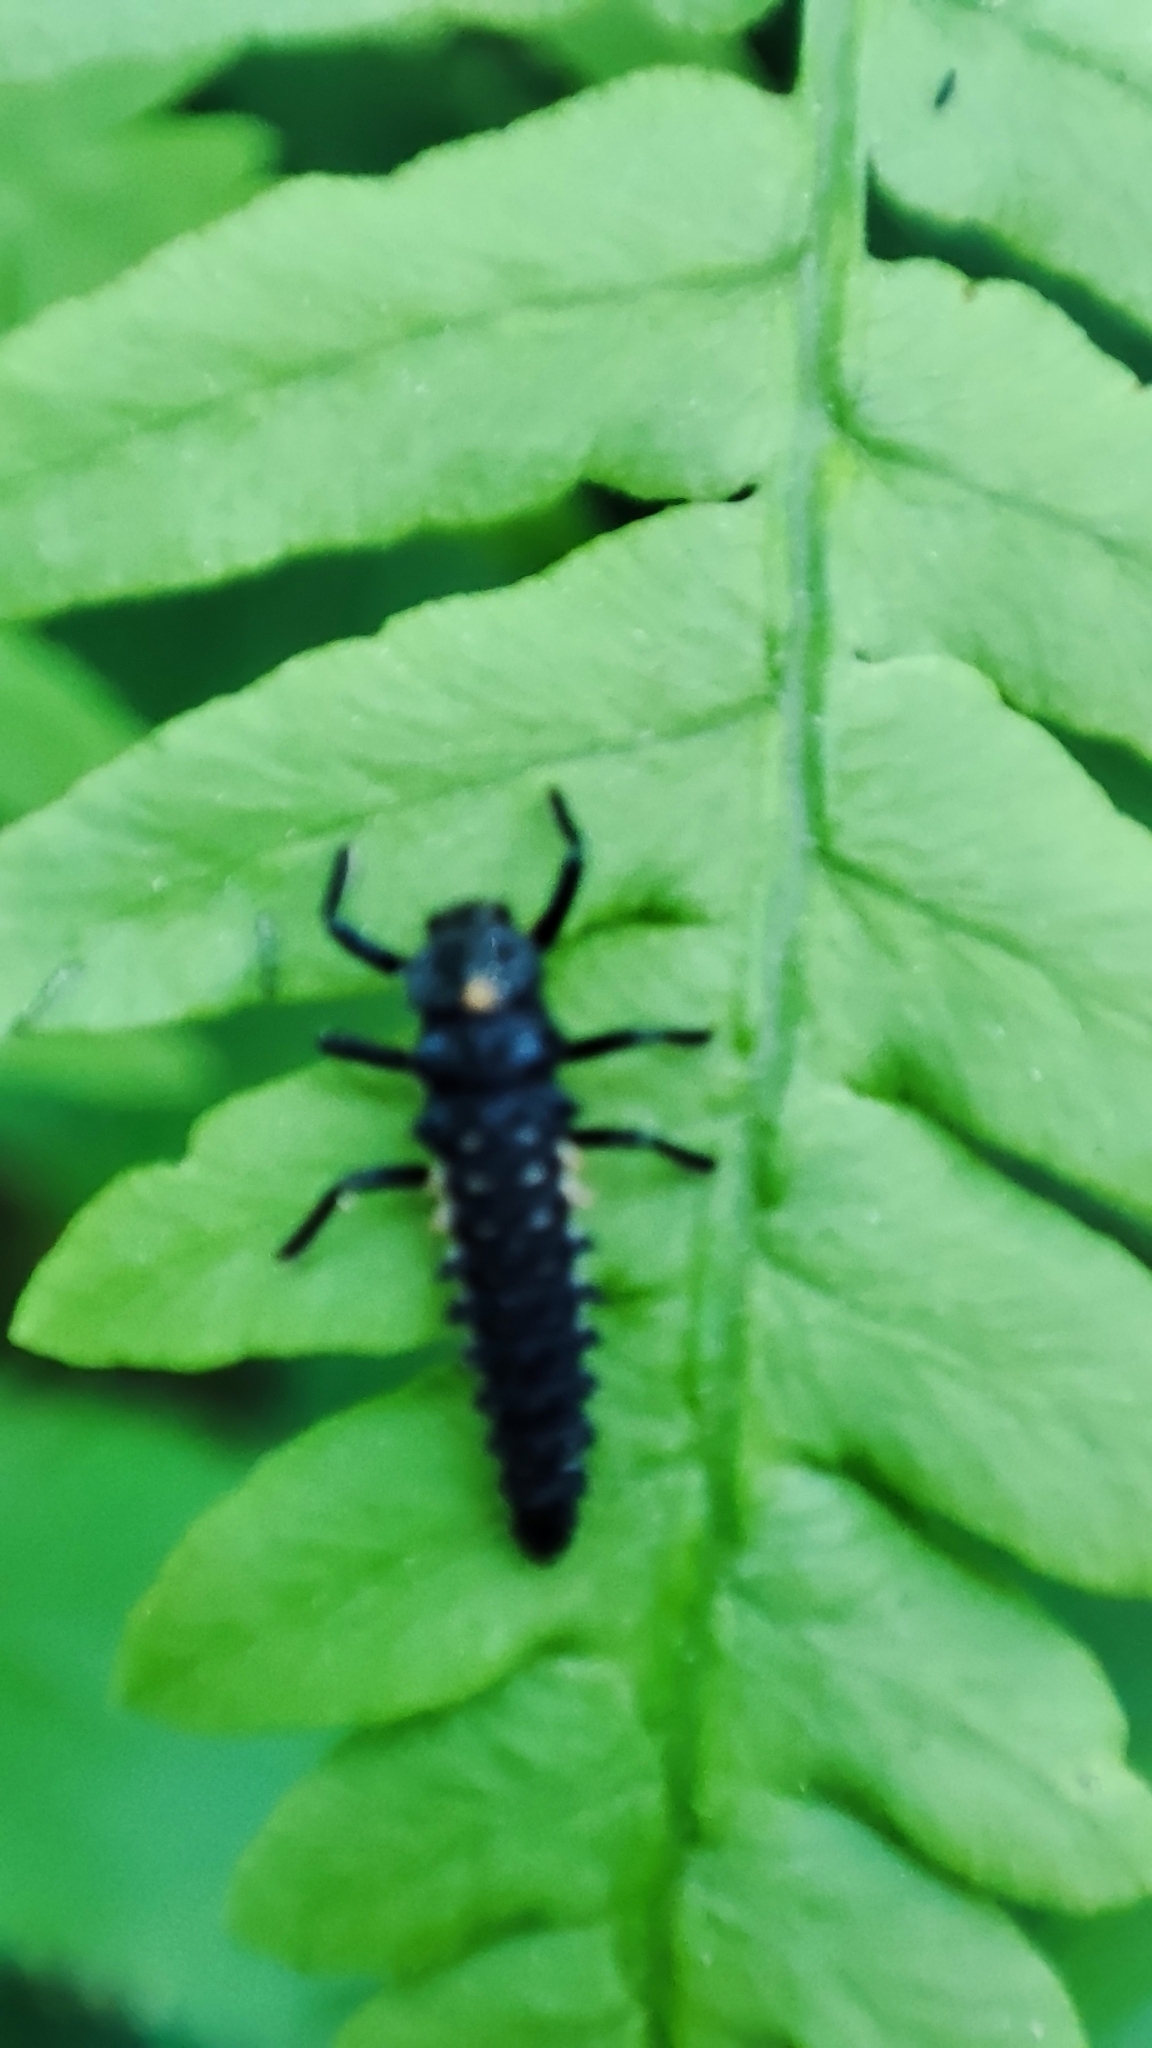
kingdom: Animalia
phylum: Arthropoda
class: Insecta
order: Coleoptera
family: Coccinellidae
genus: Anatis
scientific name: Anatis ocellata
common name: Eyed ladybird
